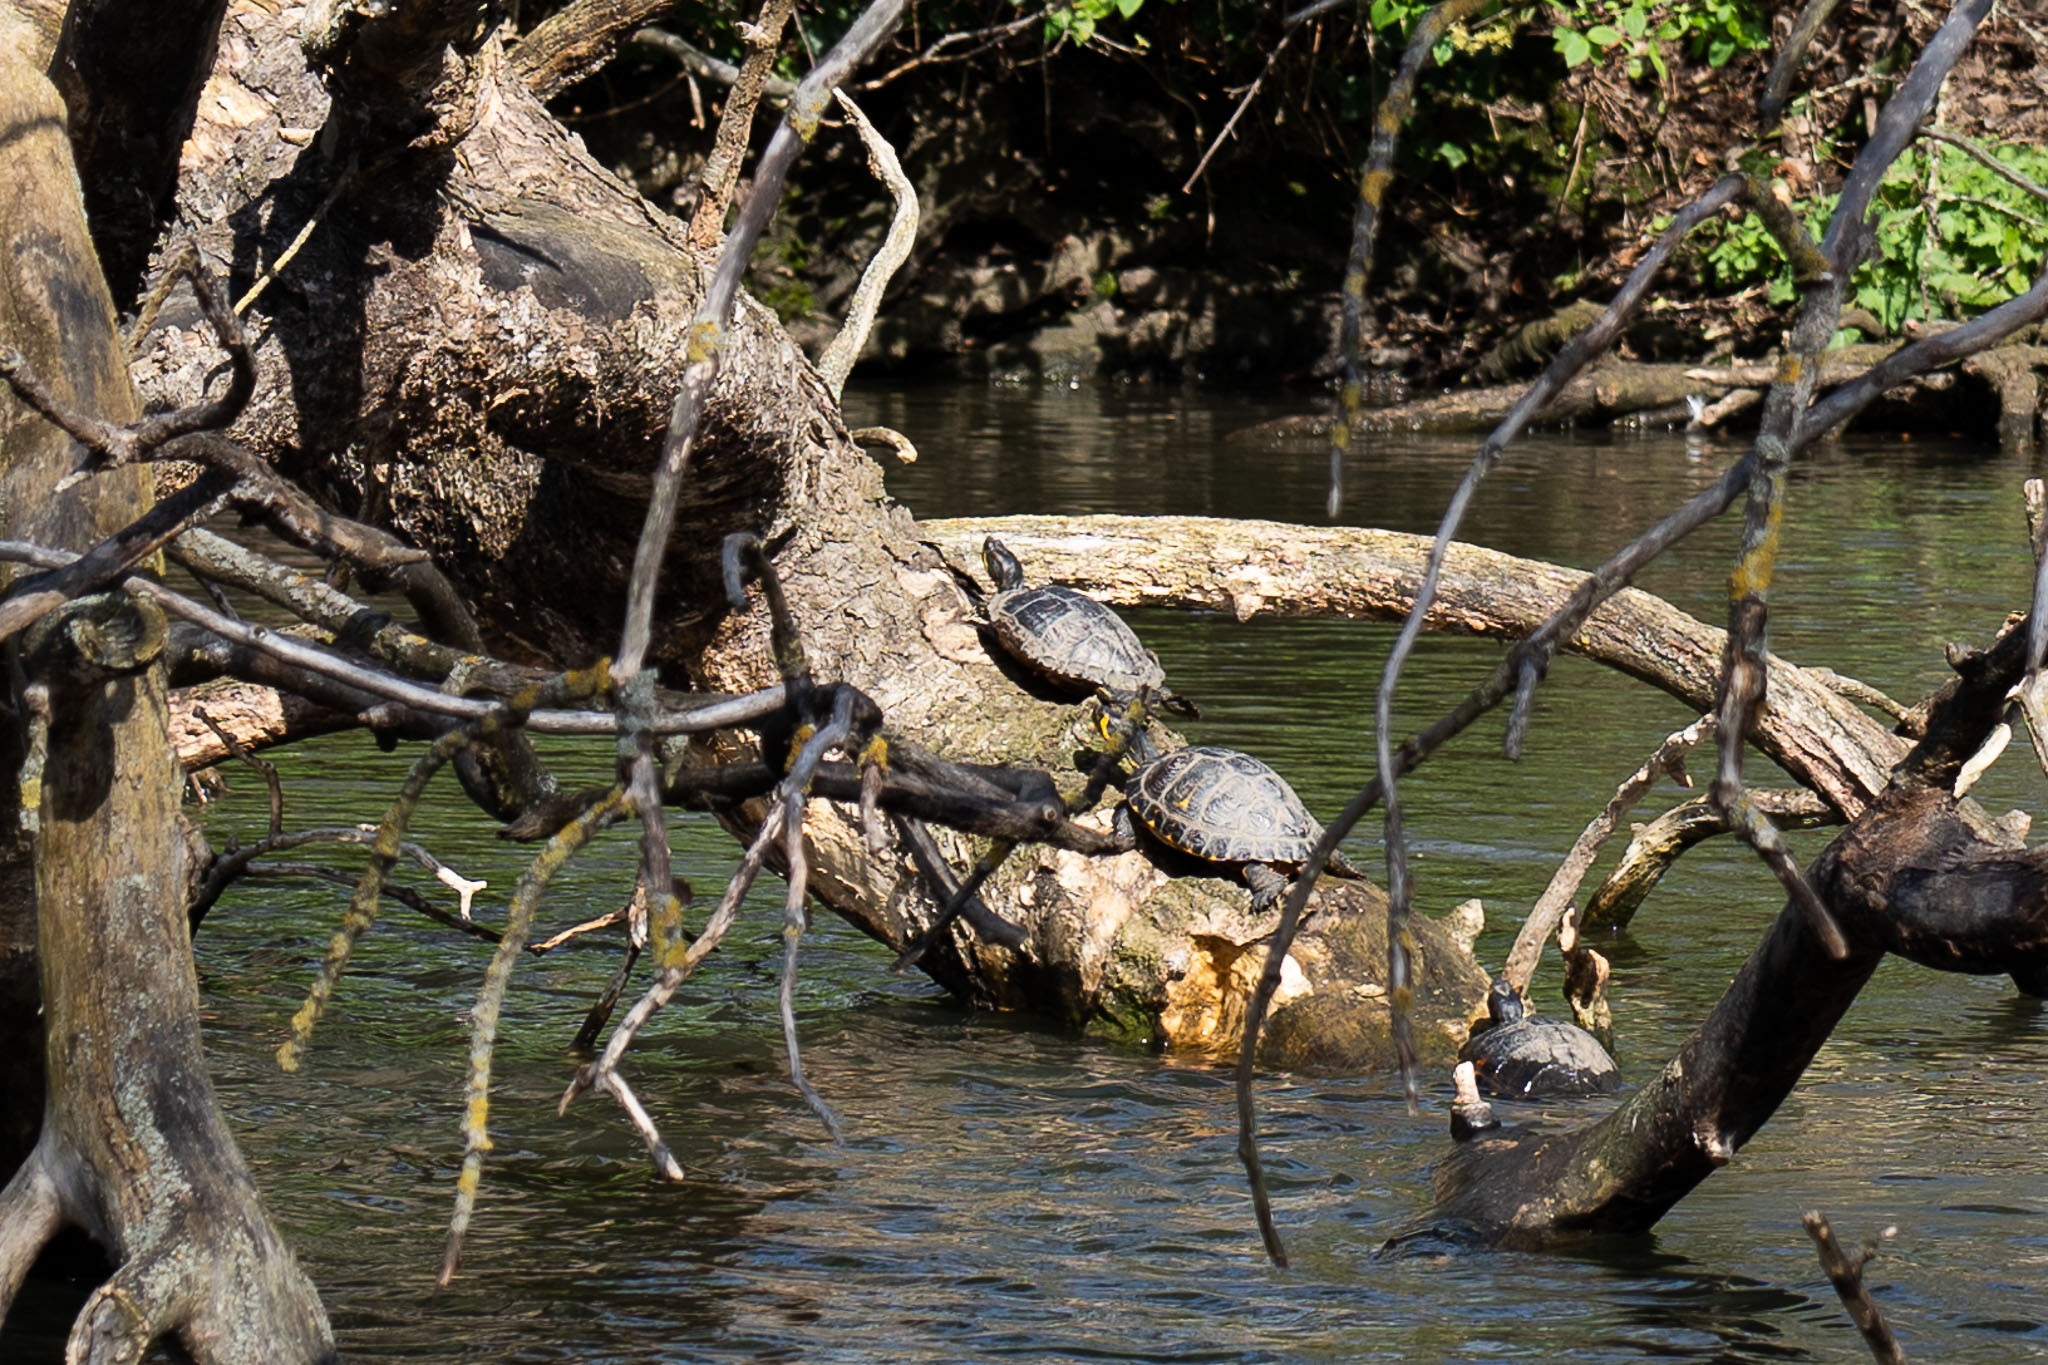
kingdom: Animalia
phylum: Chordata
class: Testudines
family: Emydidae
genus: Trachemys
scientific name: Trachemys scripta
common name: Slider
